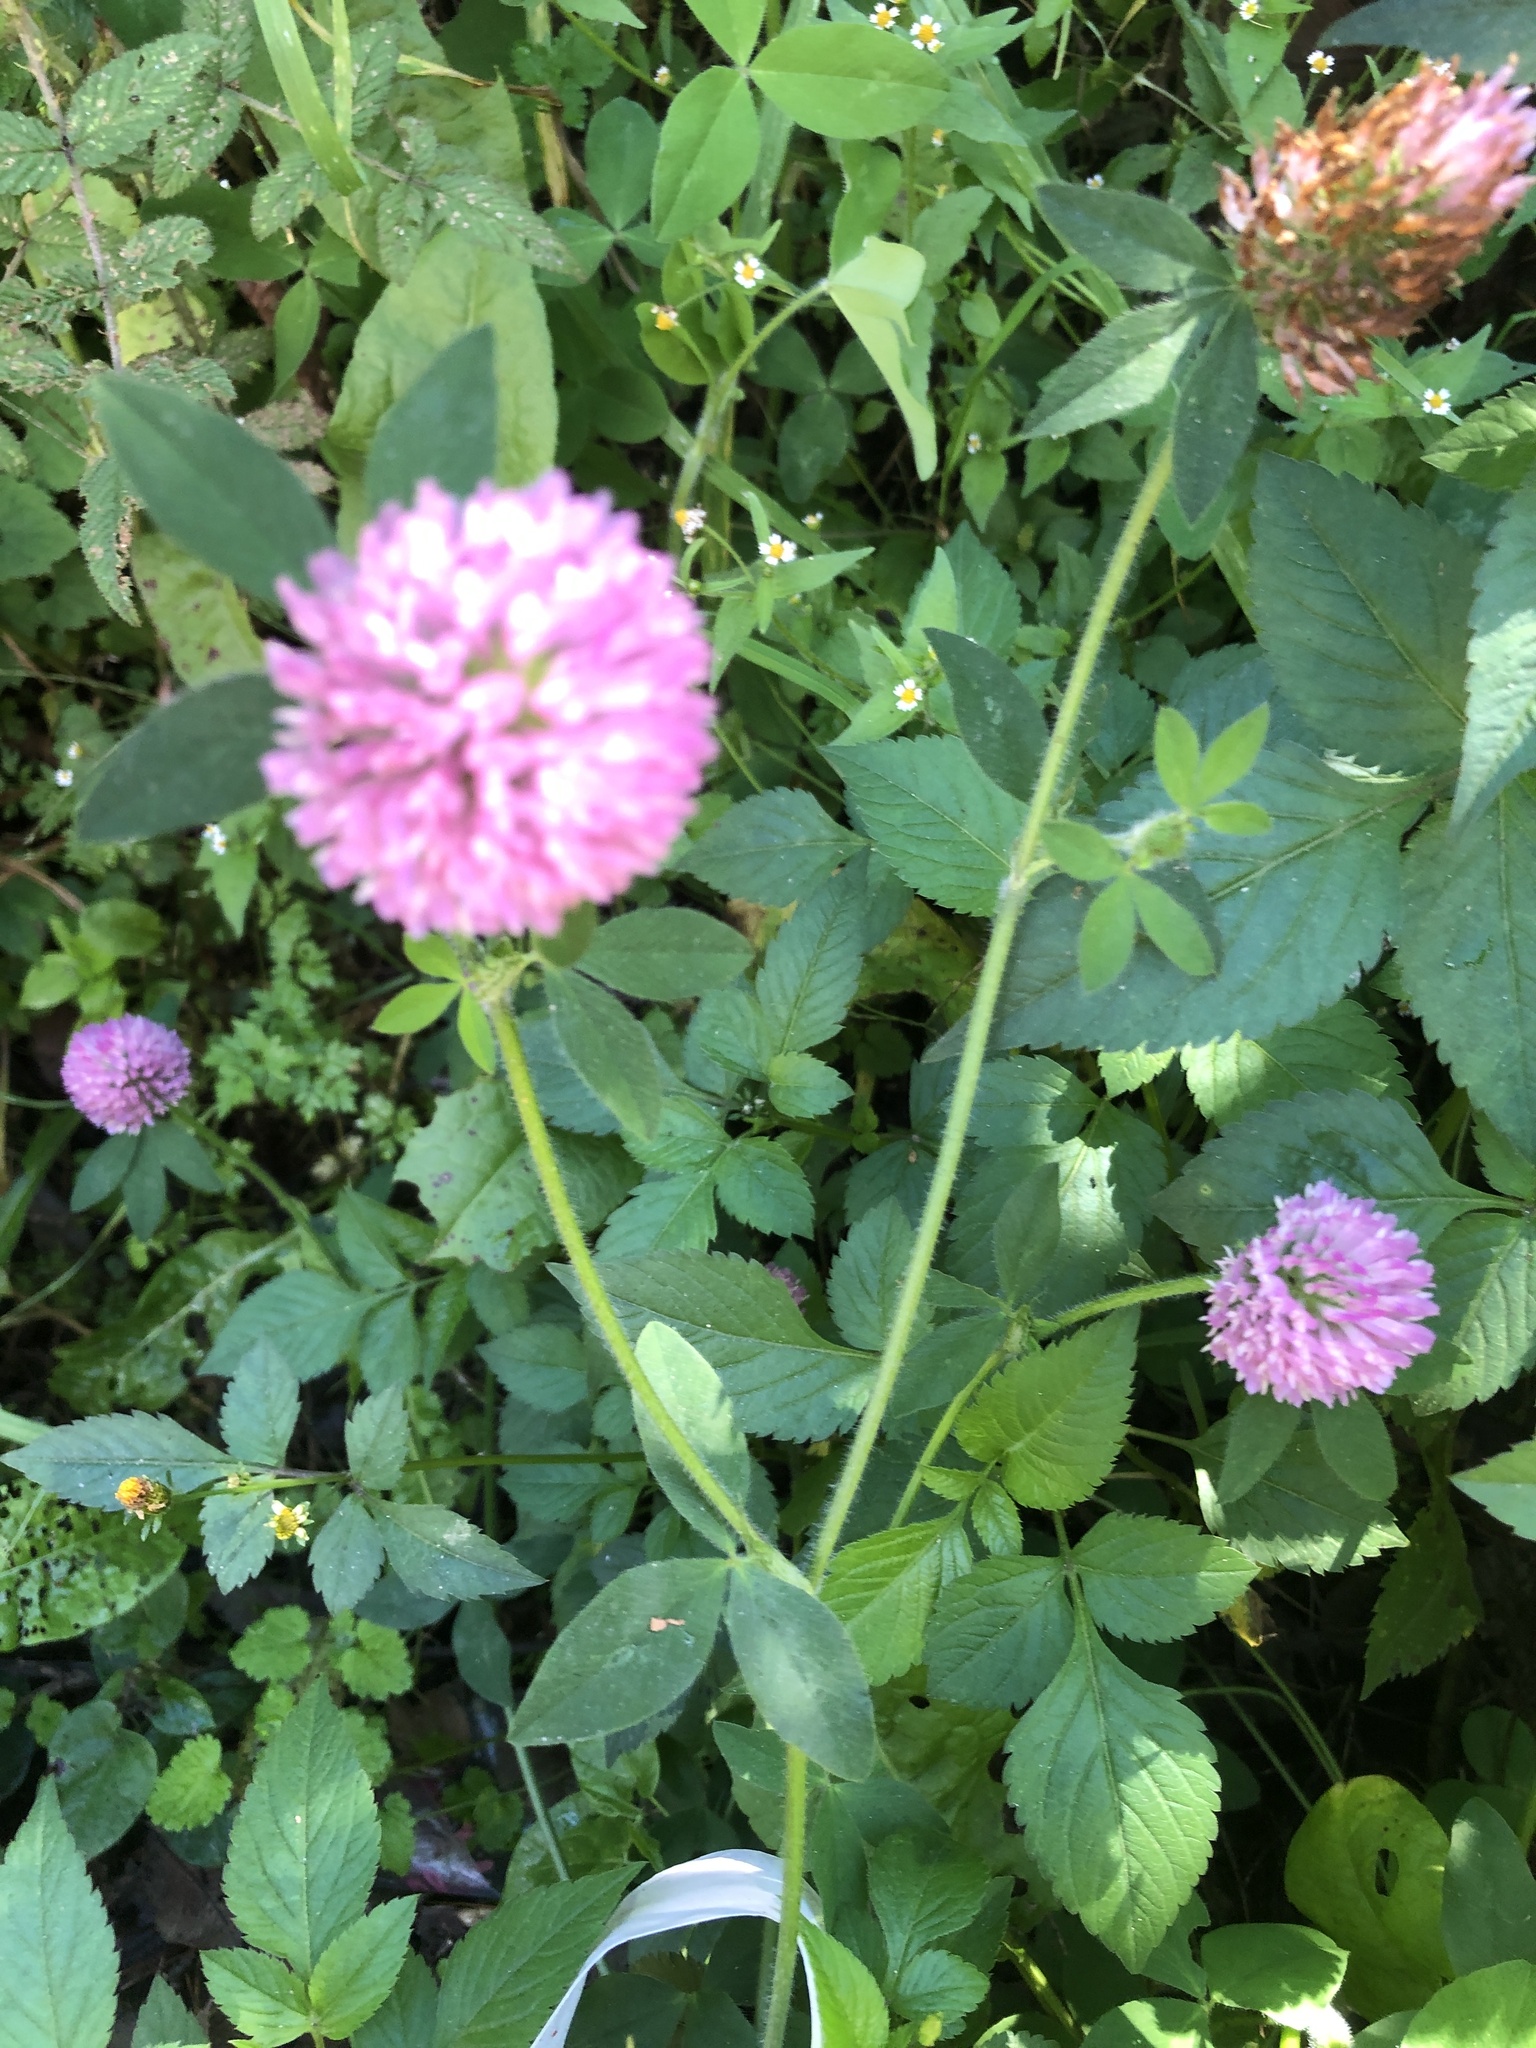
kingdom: Plantae
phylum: Tracheophyta
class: Magnoliopsida
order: Fabales
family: Fabaceae
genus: Trifolium
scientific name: Trifolium pratense
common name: Red clover
